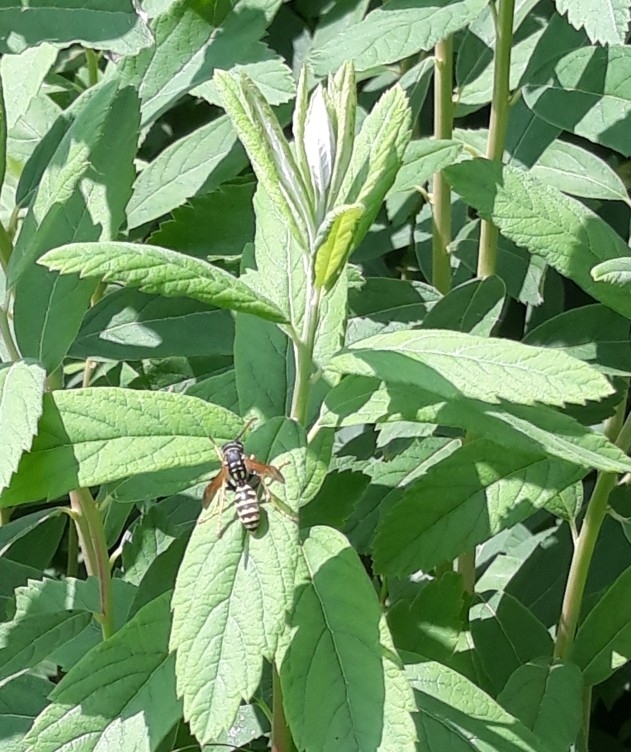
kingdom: Animalia
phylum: Arthropoda
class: Insecta
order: Hymenoptera
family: Eumenidae
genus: Polistes
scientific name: Polistes dominula
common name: Paper wasp
